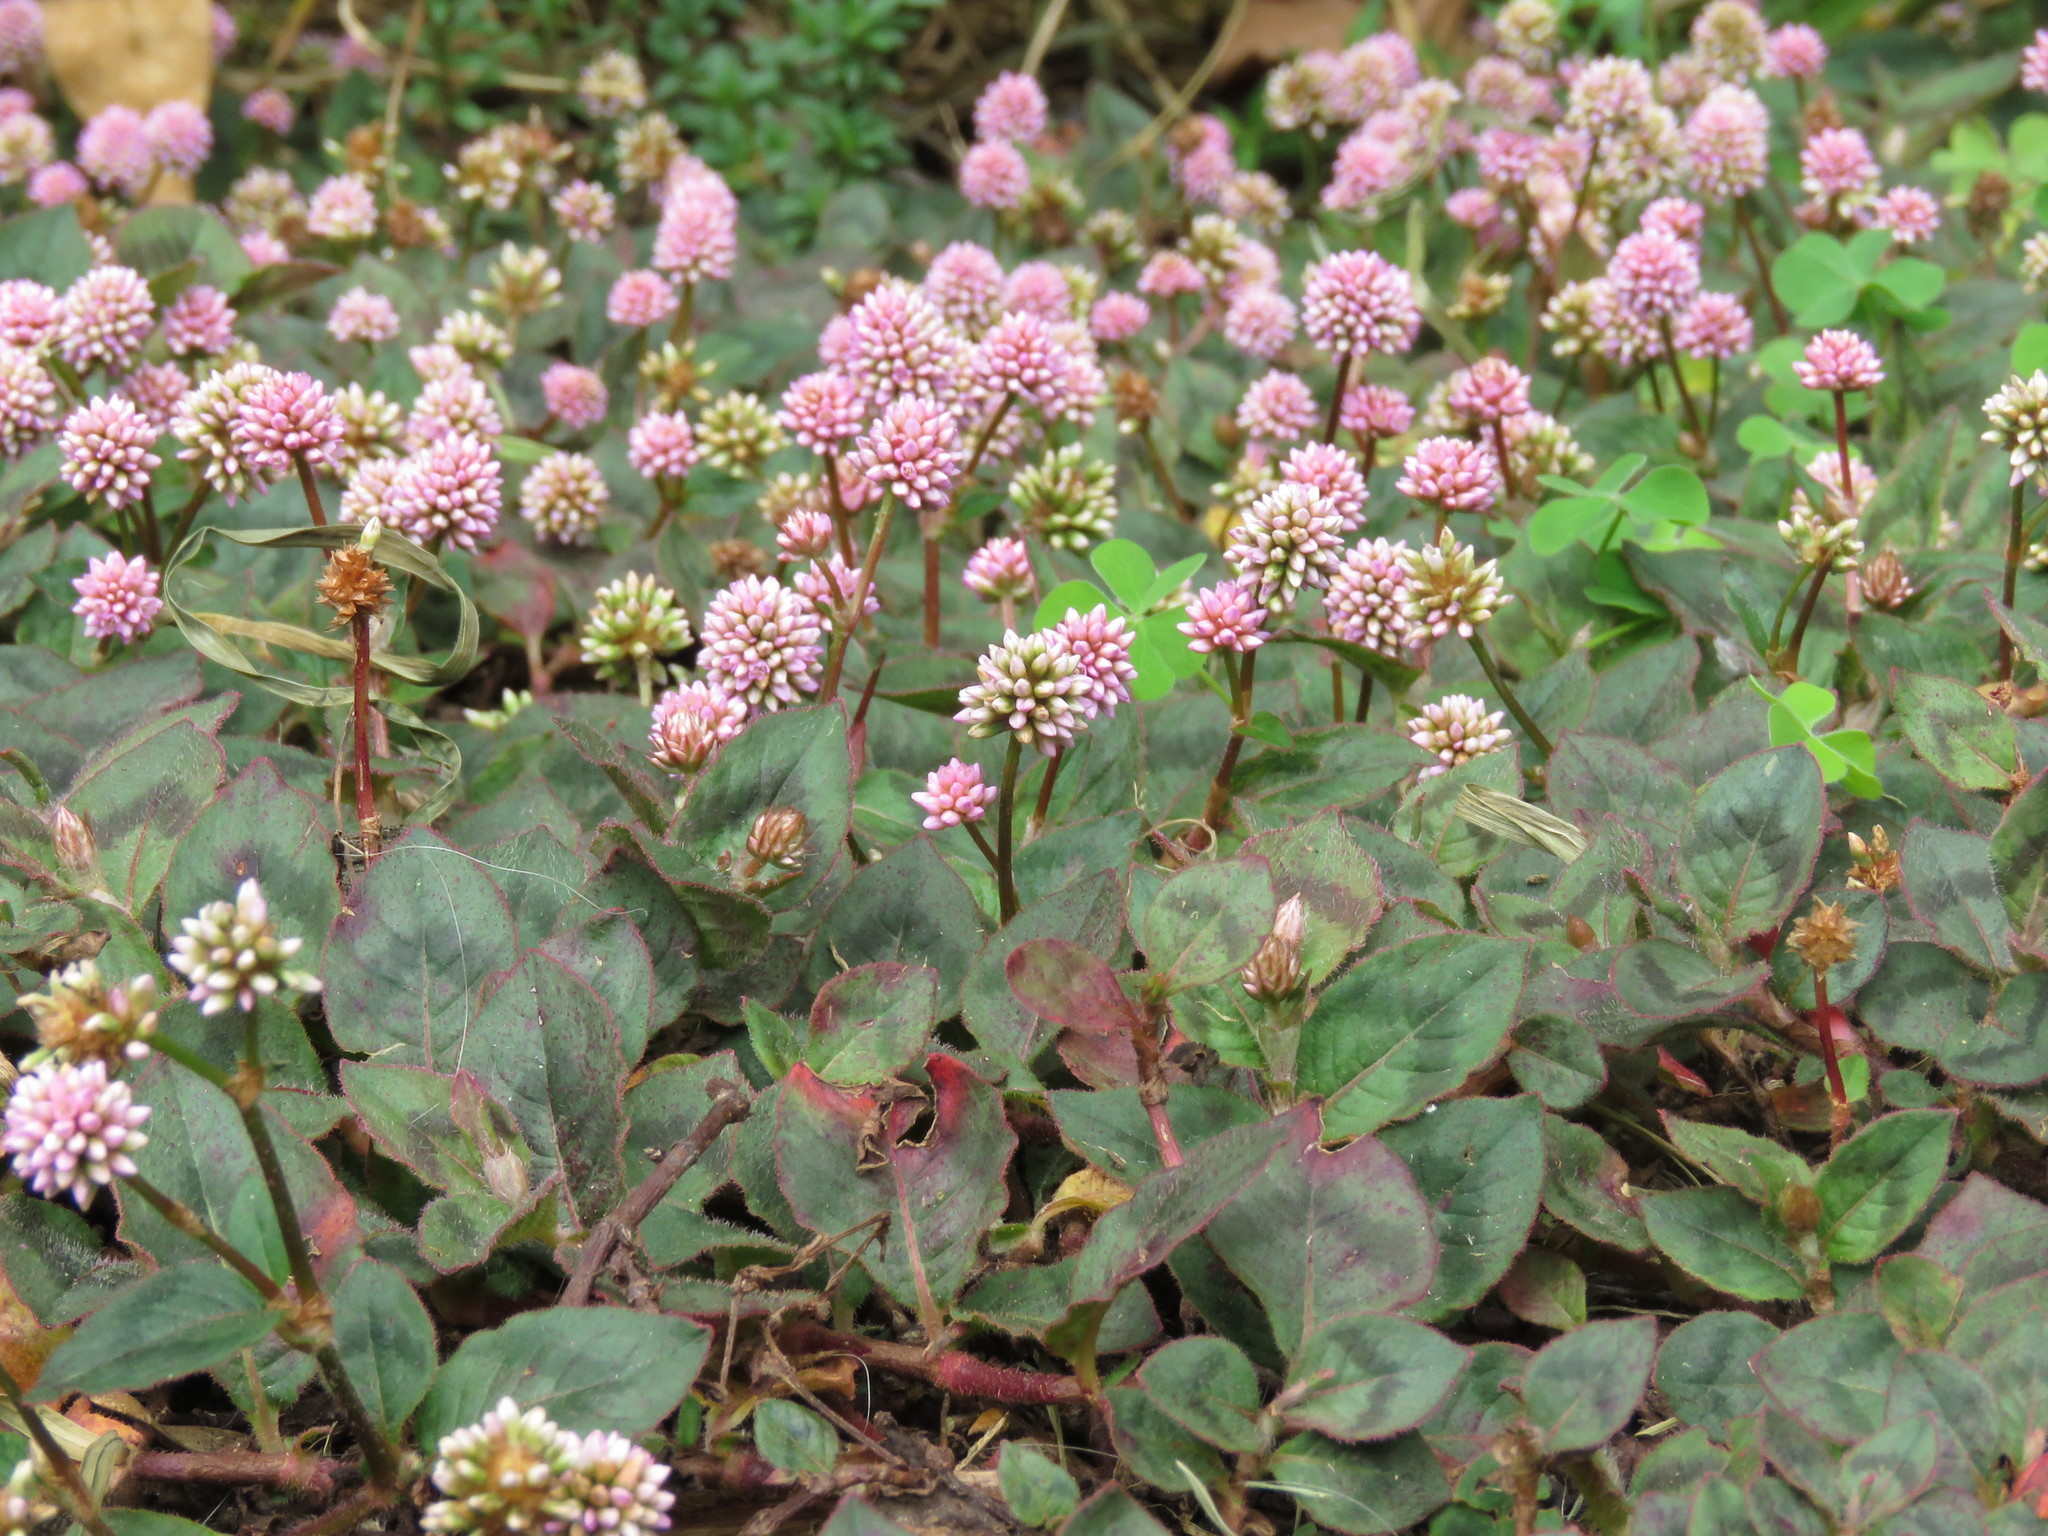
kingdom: Plantae
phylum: Tracheophyta
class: Magnoliopsida
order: Caryophyllales
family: Polygonaceae
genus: Persicaria
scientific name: Persicaria capitata
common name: Pinkhead smartweed
